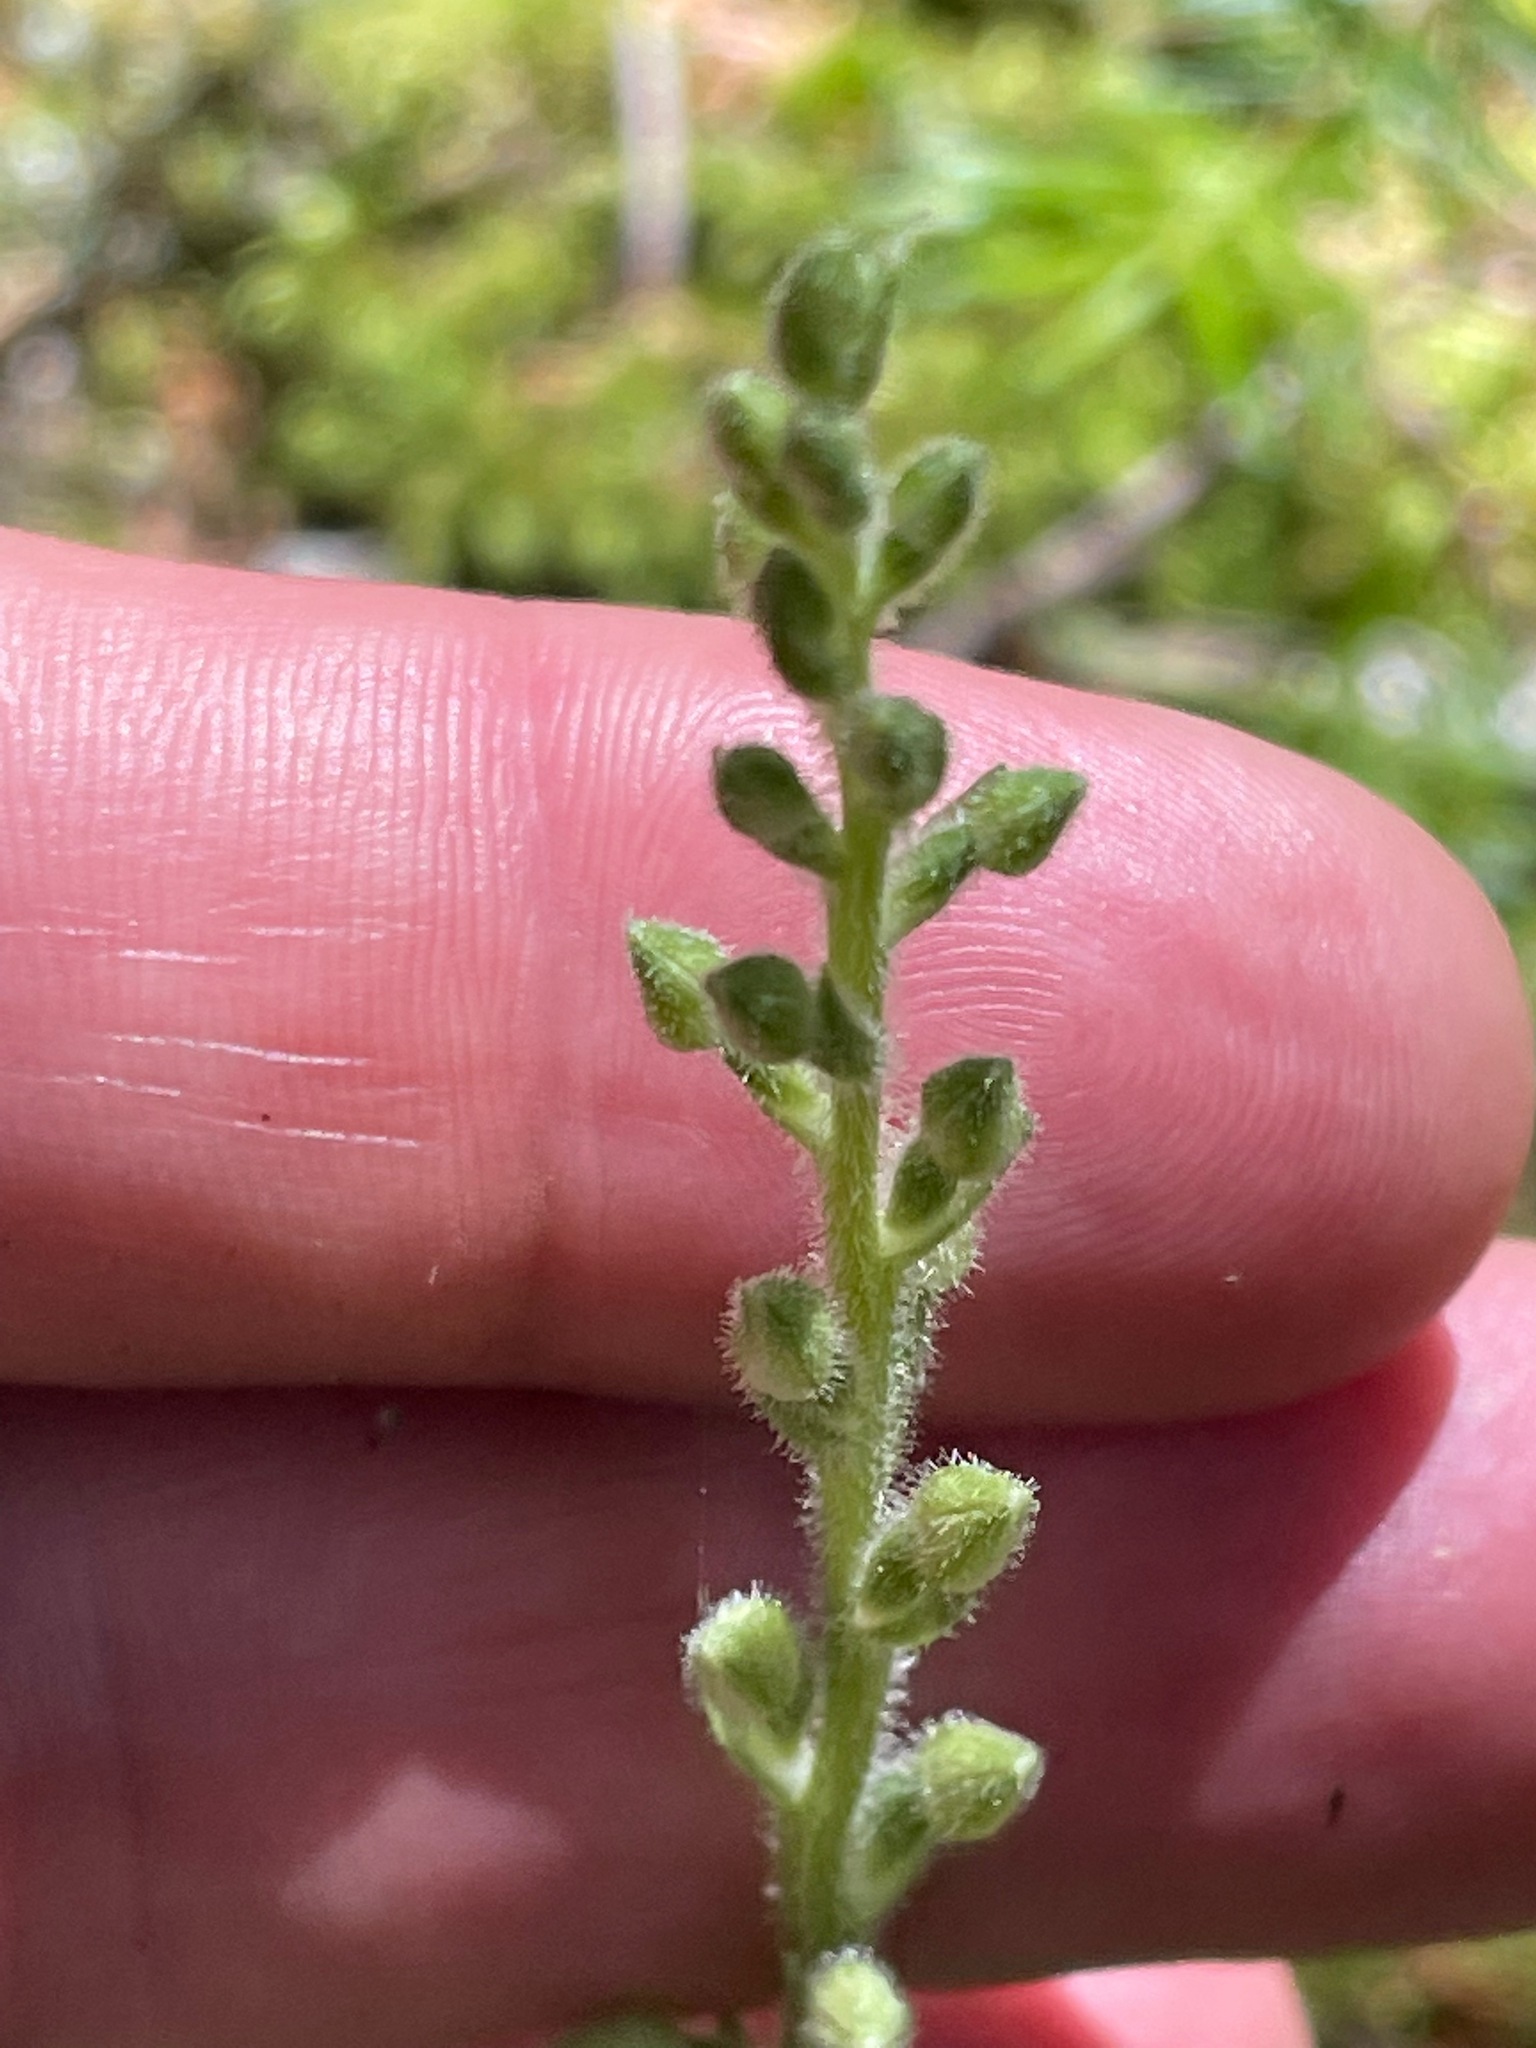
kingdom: Plantae
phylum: Tracheophyta
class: Liliopsida
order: Asparagales
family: Orchidaceae
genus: Goodyera
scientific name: Goodyera tesselata
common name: Checkered rattlesnake-plantain
